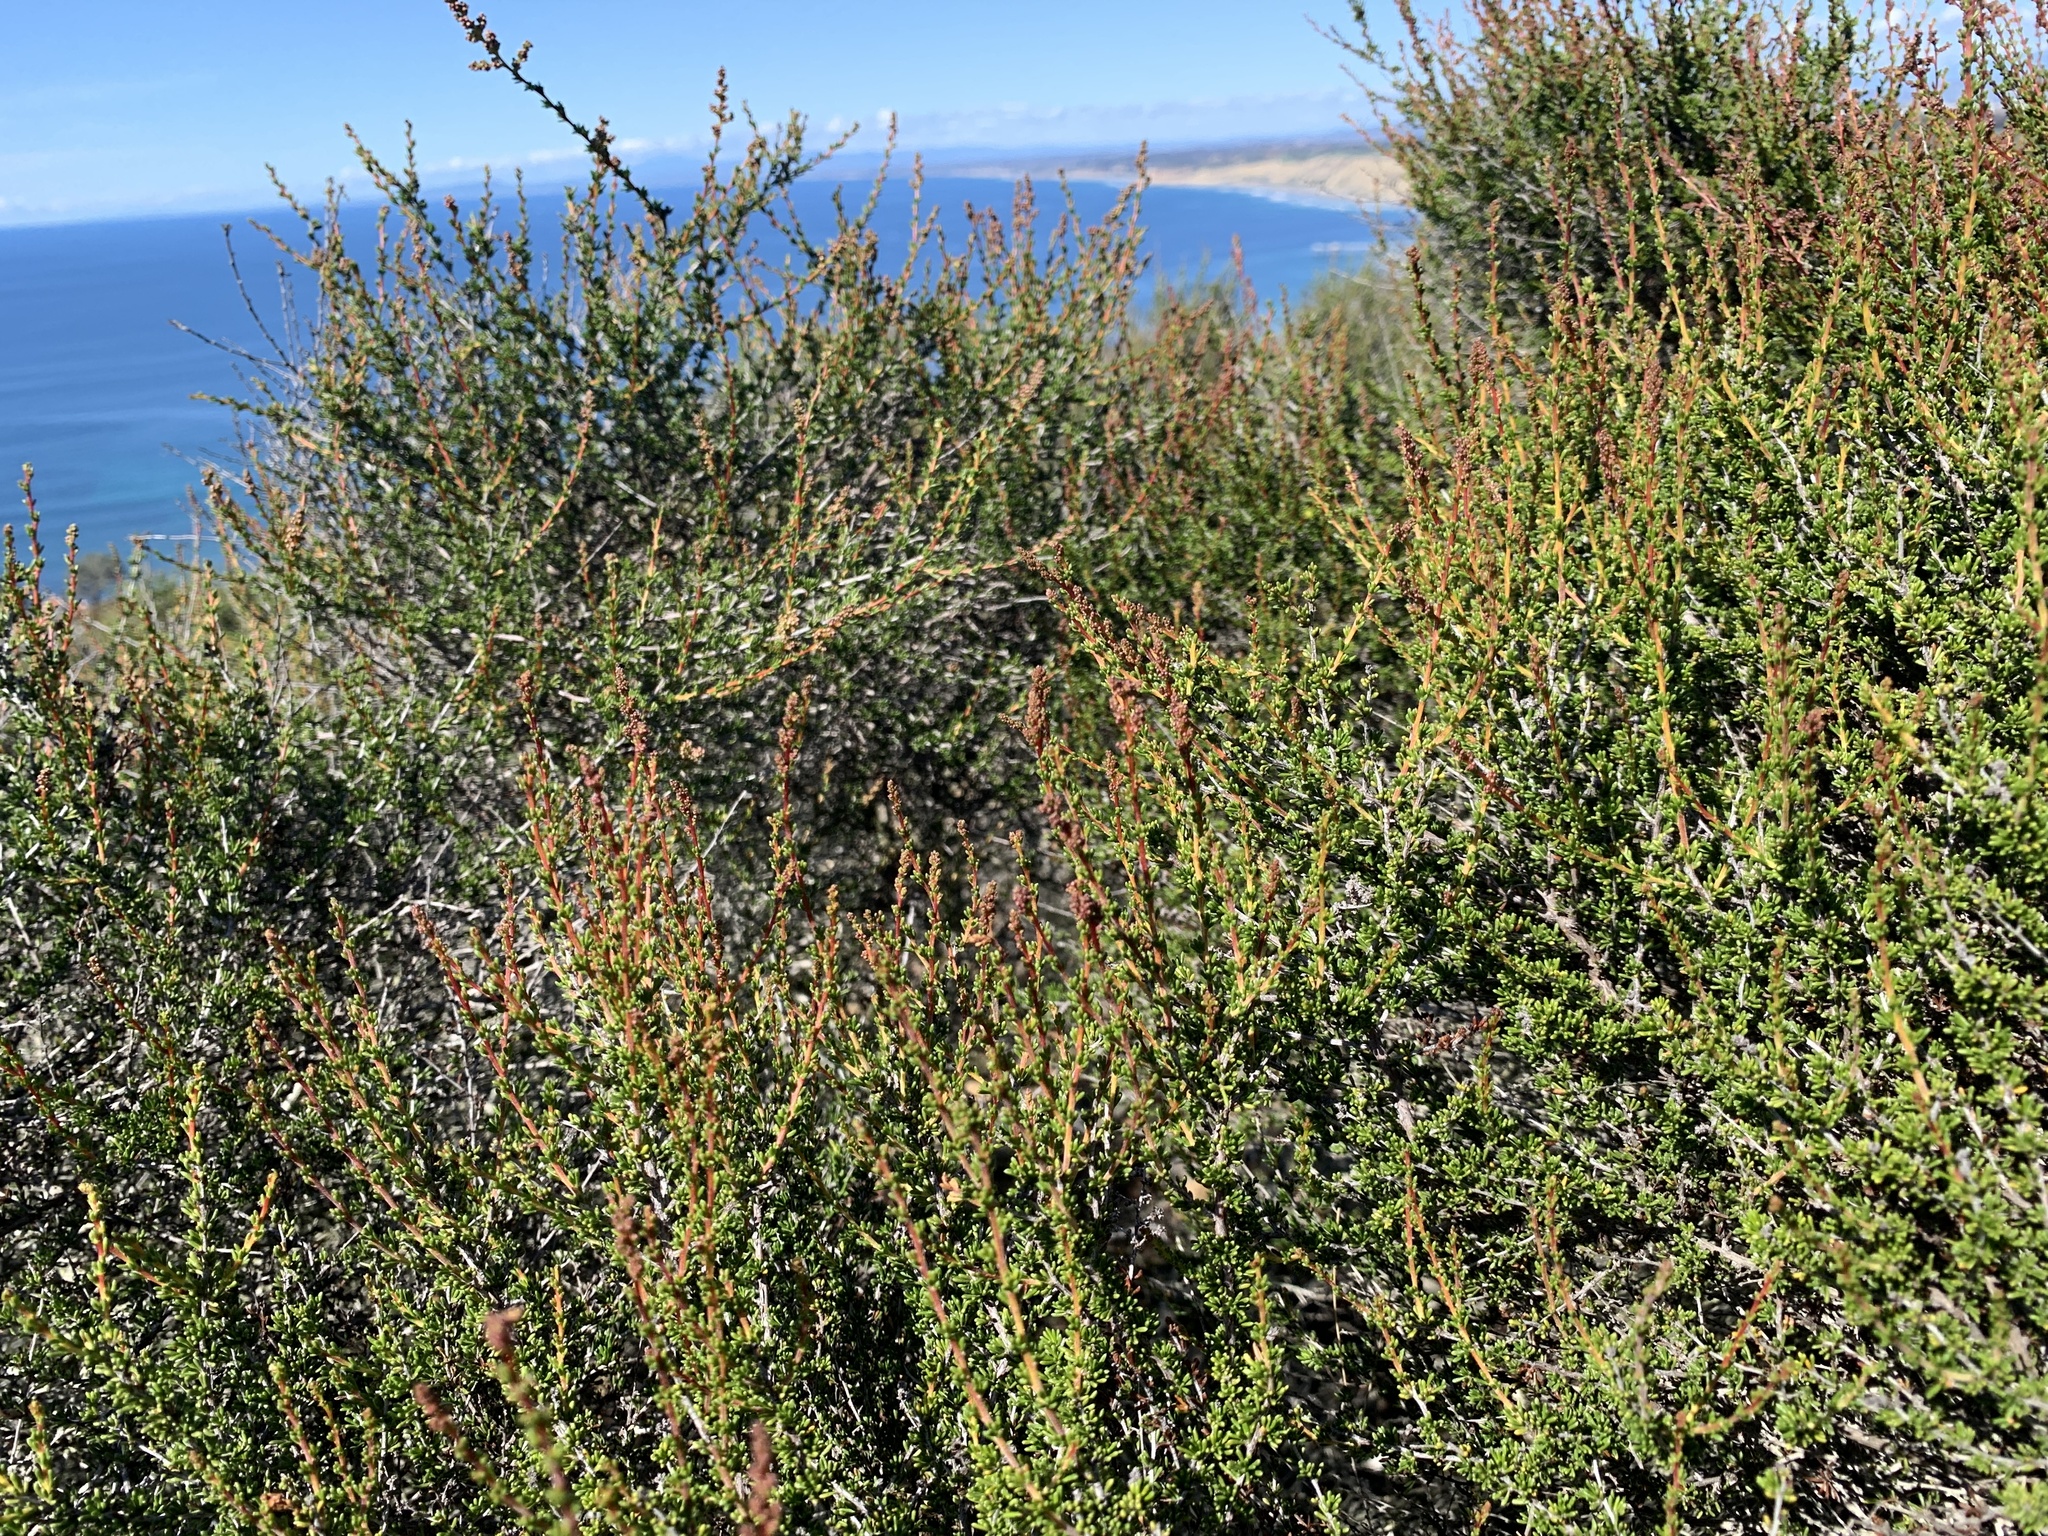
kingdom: Plantae
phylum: Tracheophyta
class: Magnoliopsida
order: Rosales
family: Rosaceae
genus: Adenostoma
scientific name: Adenostoma fasciculatum
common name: Chamise
